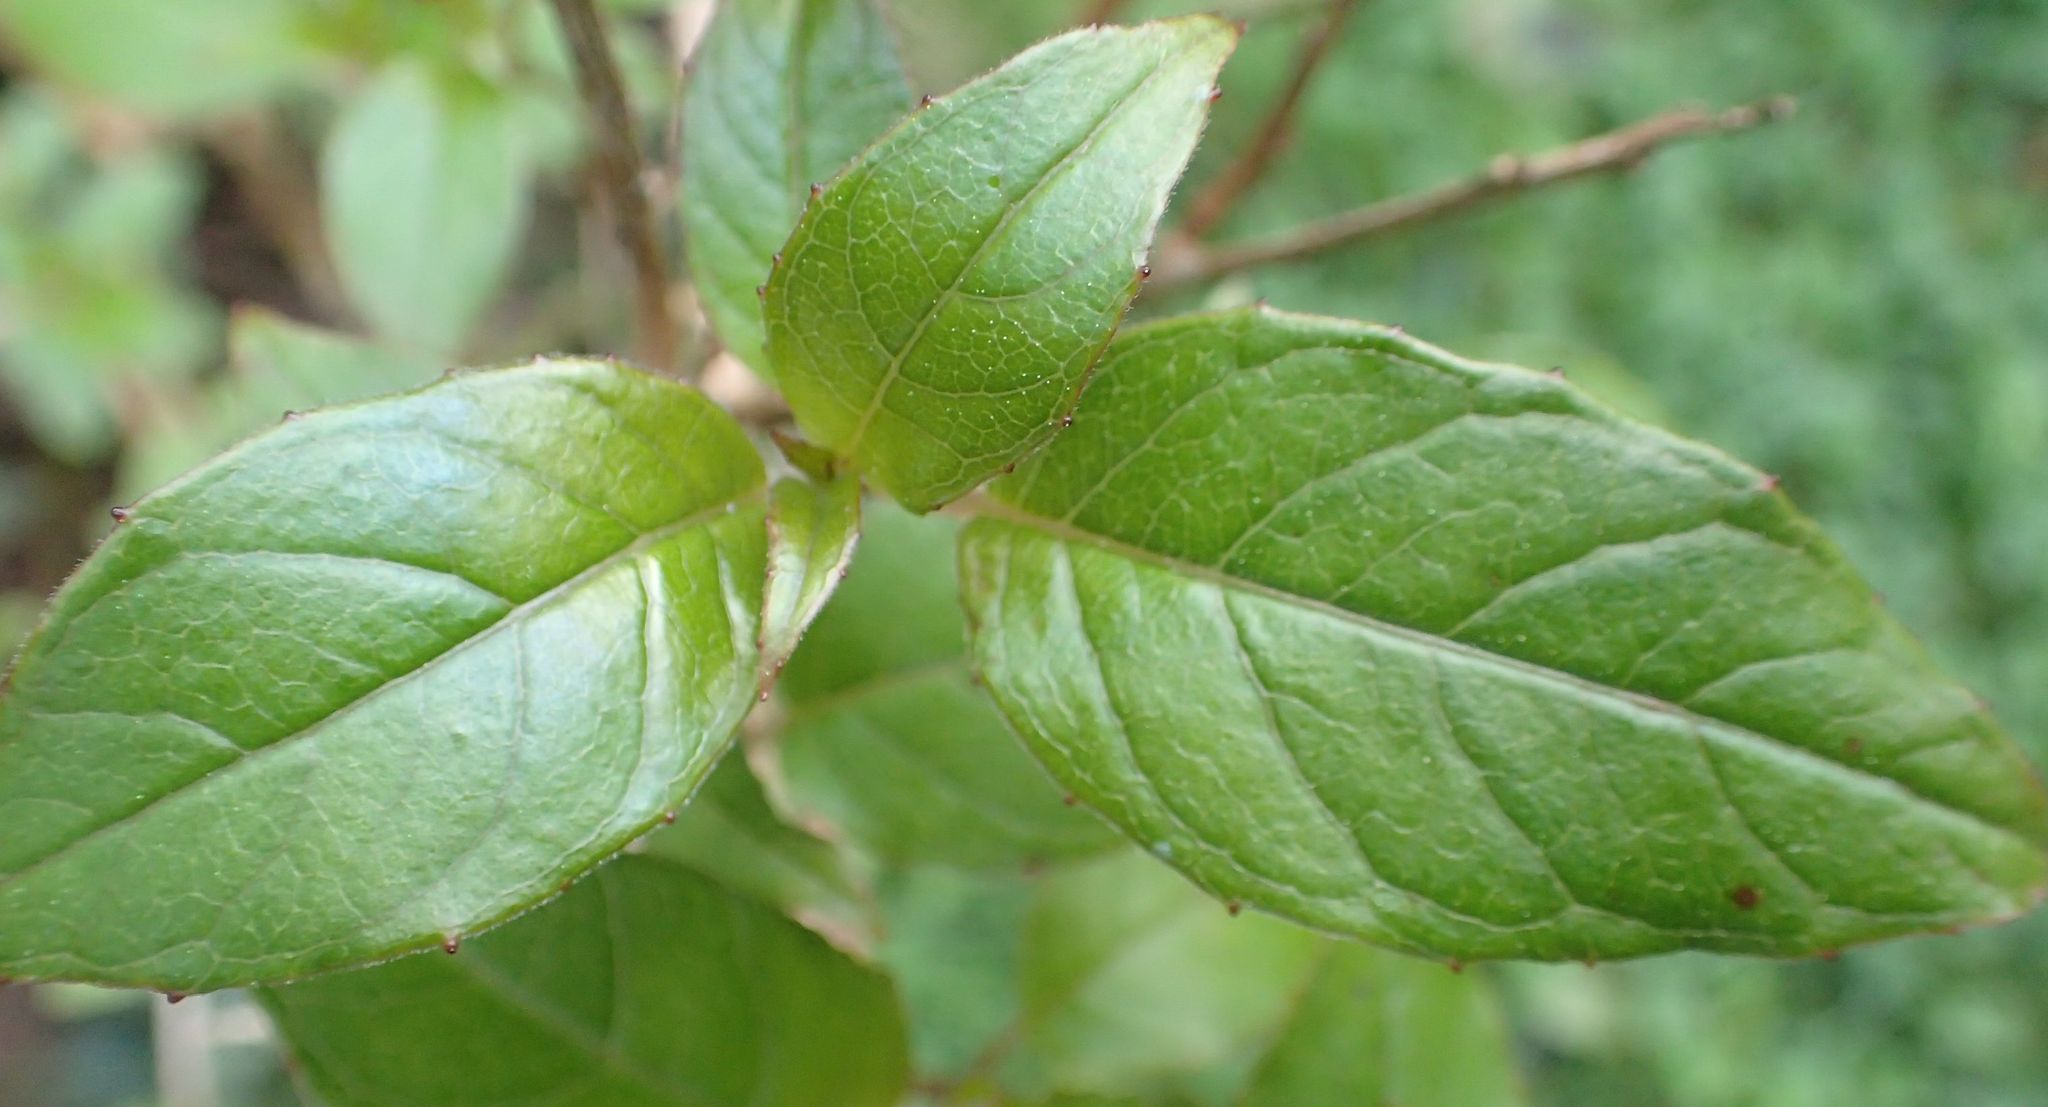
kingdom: Plantae
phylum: Tracheophyta
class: Magnoliopsida
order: Myrtales
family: Onagraceae
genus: Fuchsia
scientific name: Fuchsia excorticata
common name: Tree fuchsia
